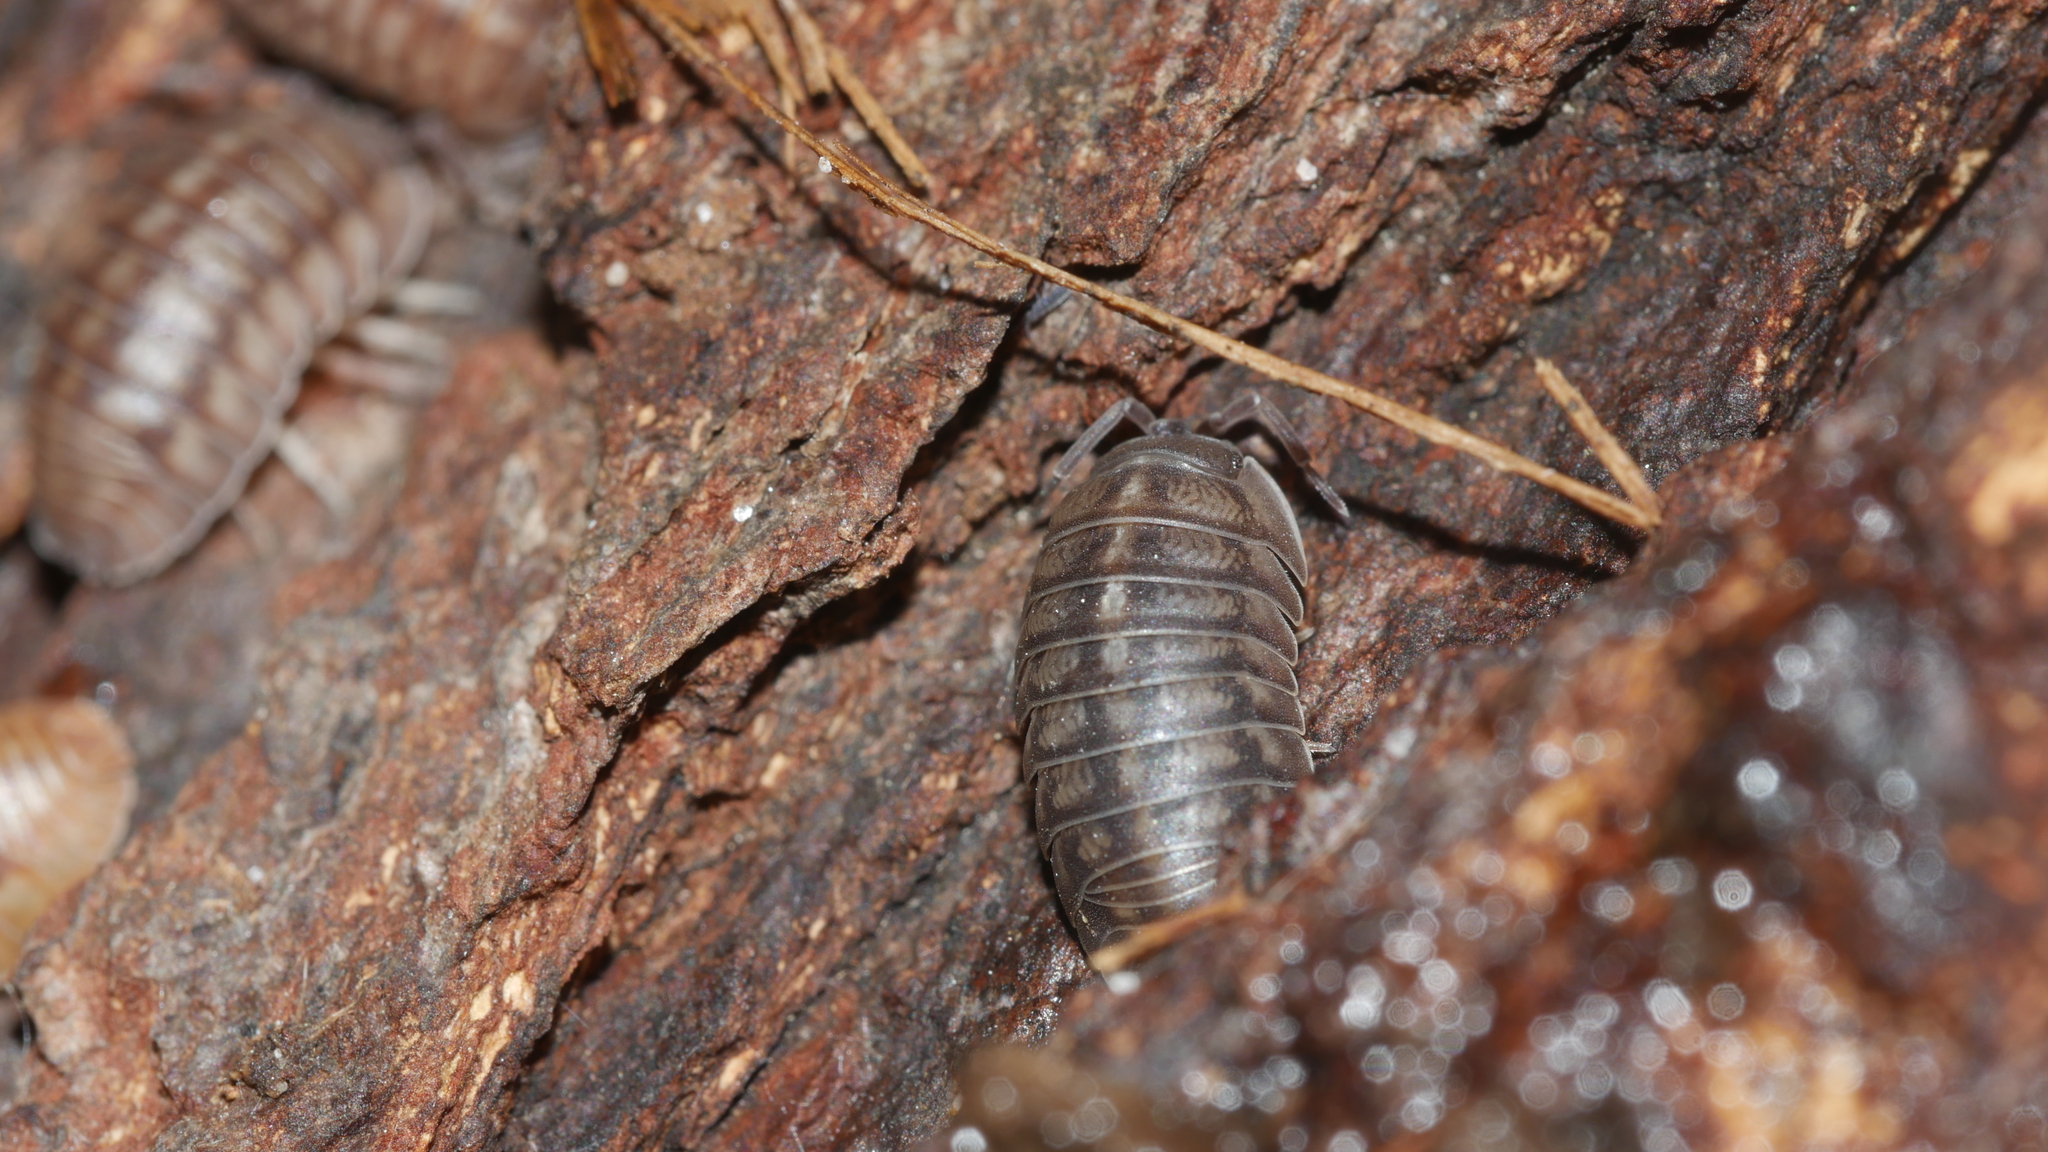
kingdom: Animalia
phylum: Arthropoda
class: Malacostraca
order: Isopoda
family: Armadillidiidae
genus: Armadillidium
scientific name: Armadillidium nasatum
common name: Isopod
